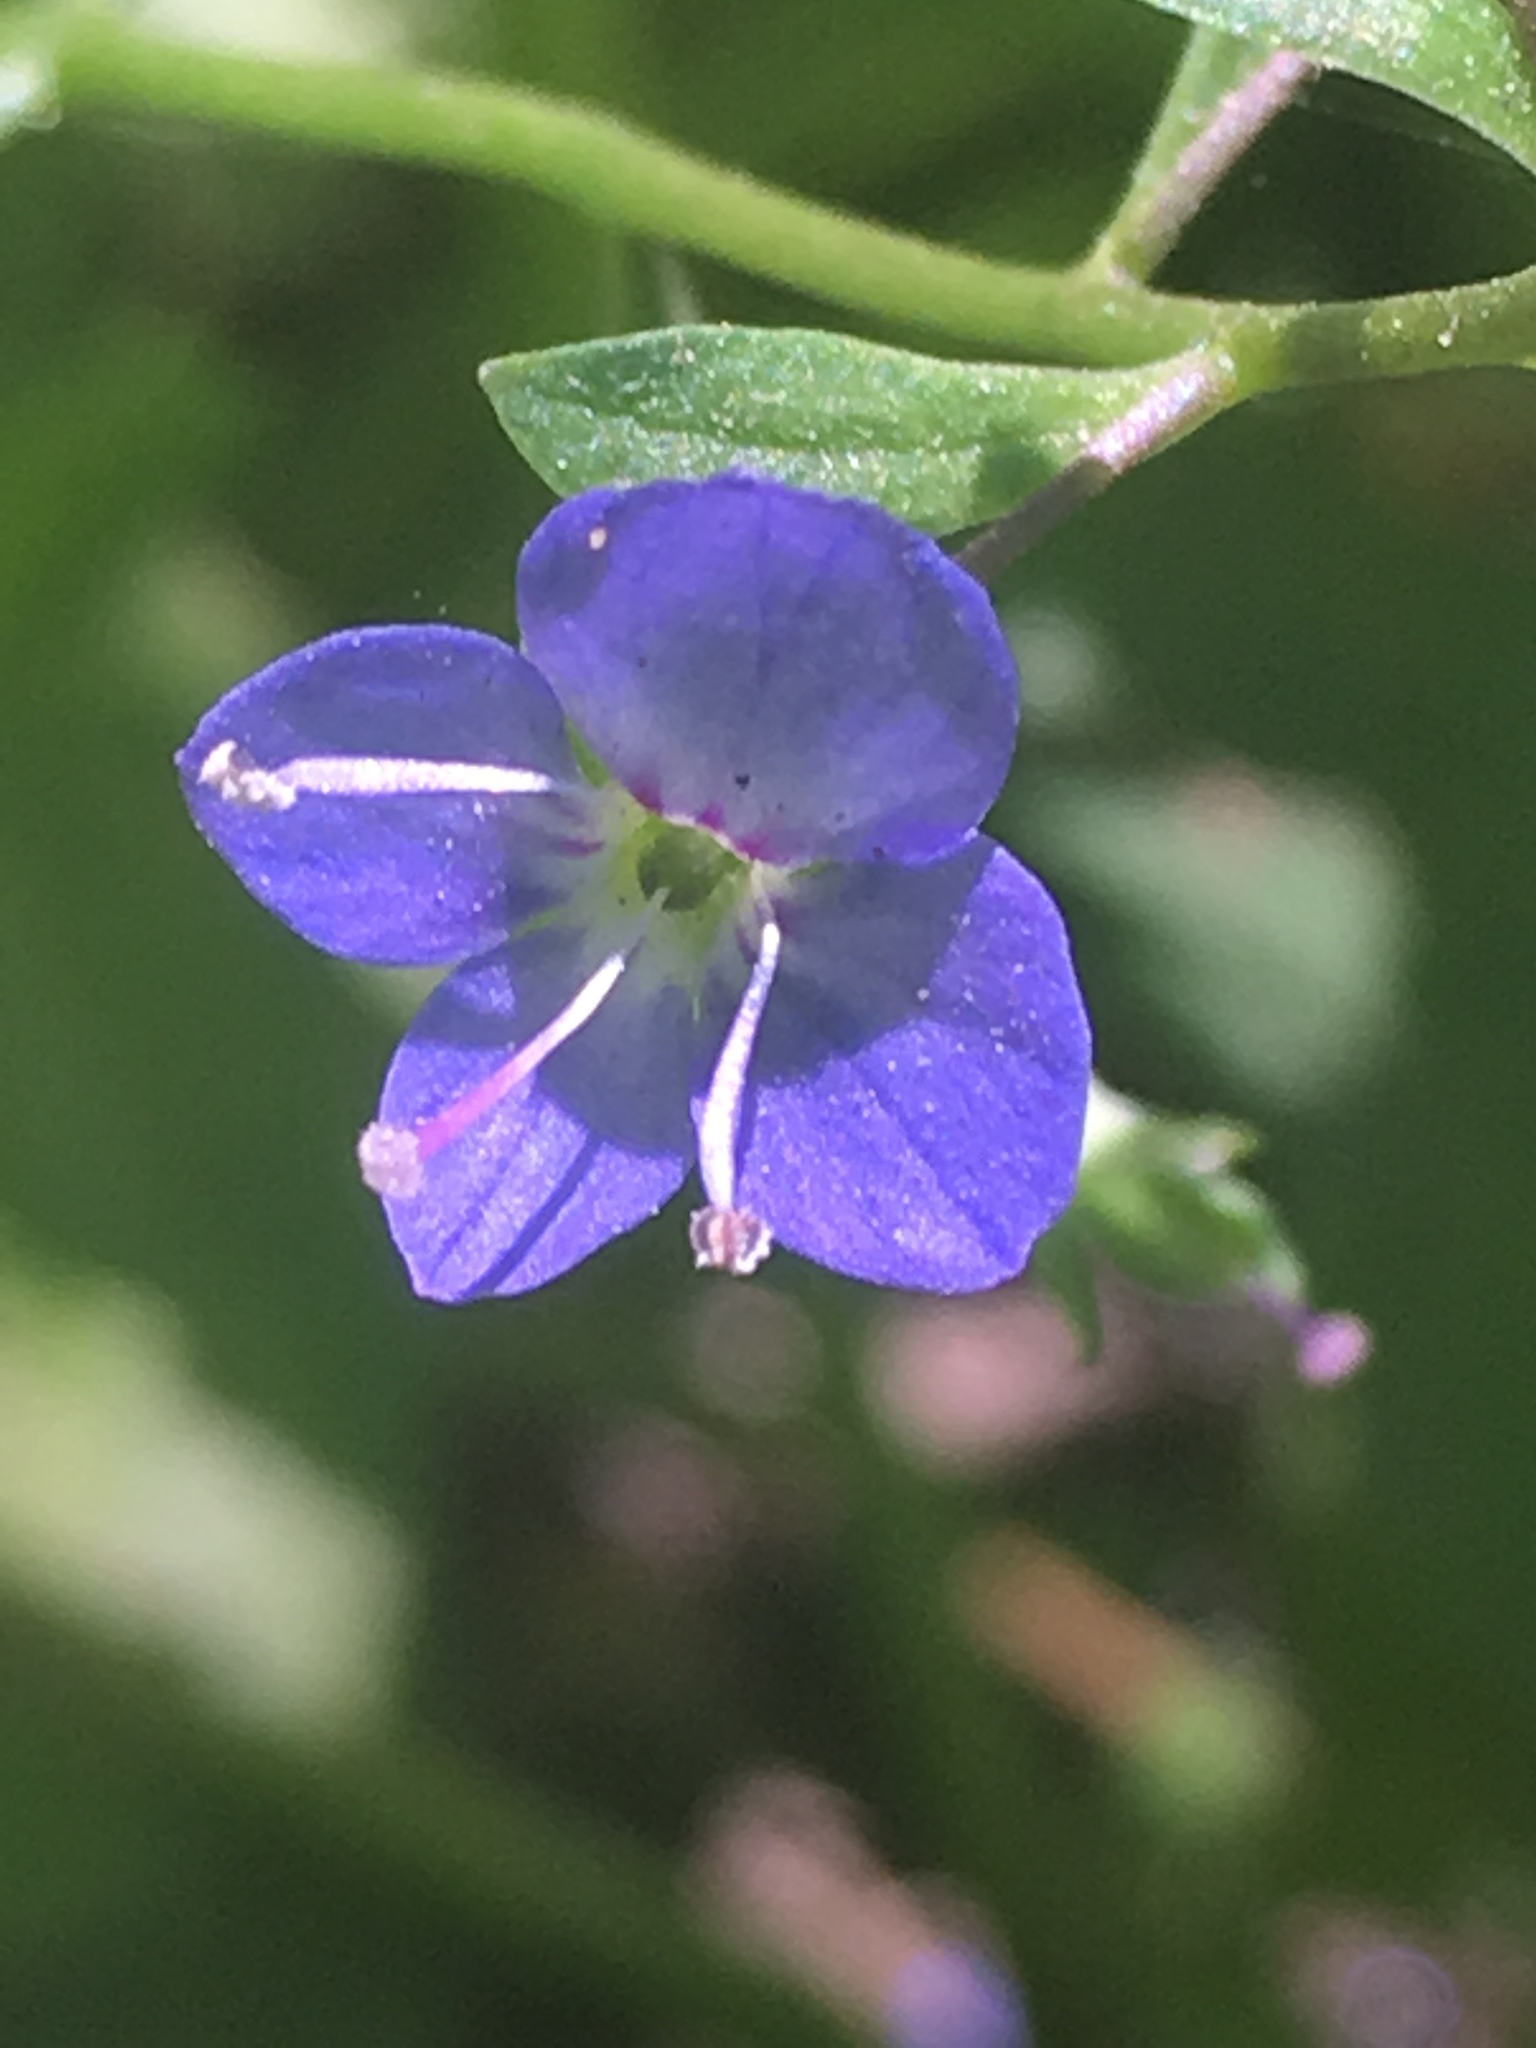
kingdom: Plantae
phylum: Tracheophyta
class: Magnoliopsida
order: Lamiales
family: Plantaginaceae
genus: Veronica
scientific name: Veronica americana
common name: American brooklime
